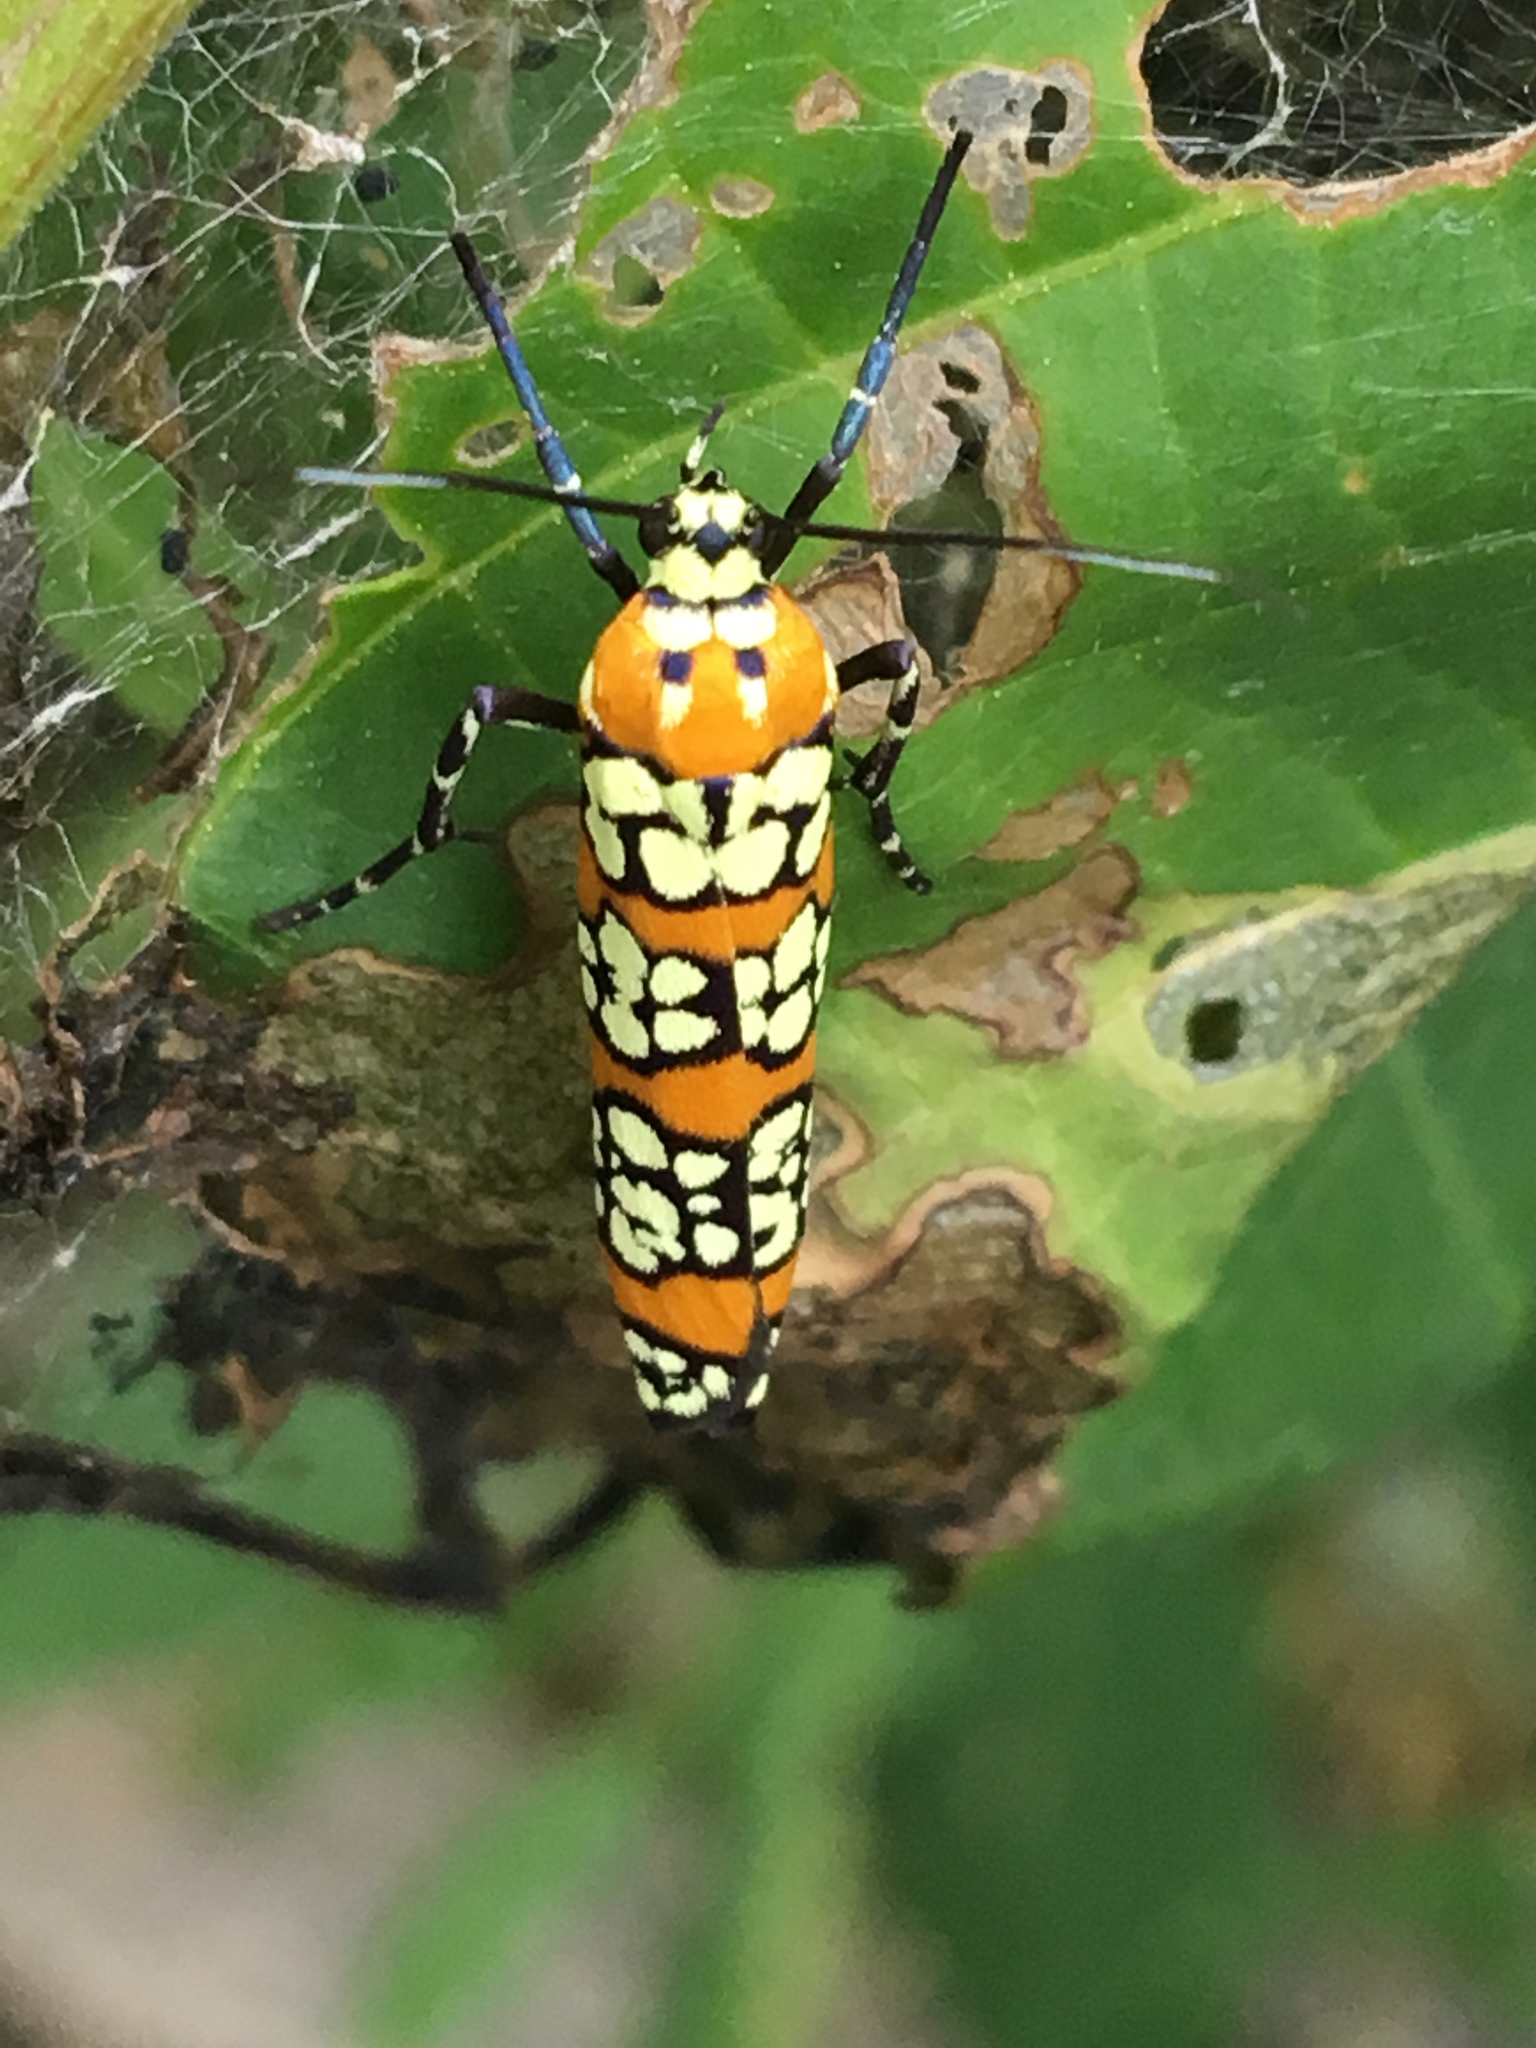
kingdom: Animalia
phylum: Arthropoda
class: Insecta
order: Lepidoptera
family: Attevidae
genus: Atteva
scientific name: Atteva punctella
